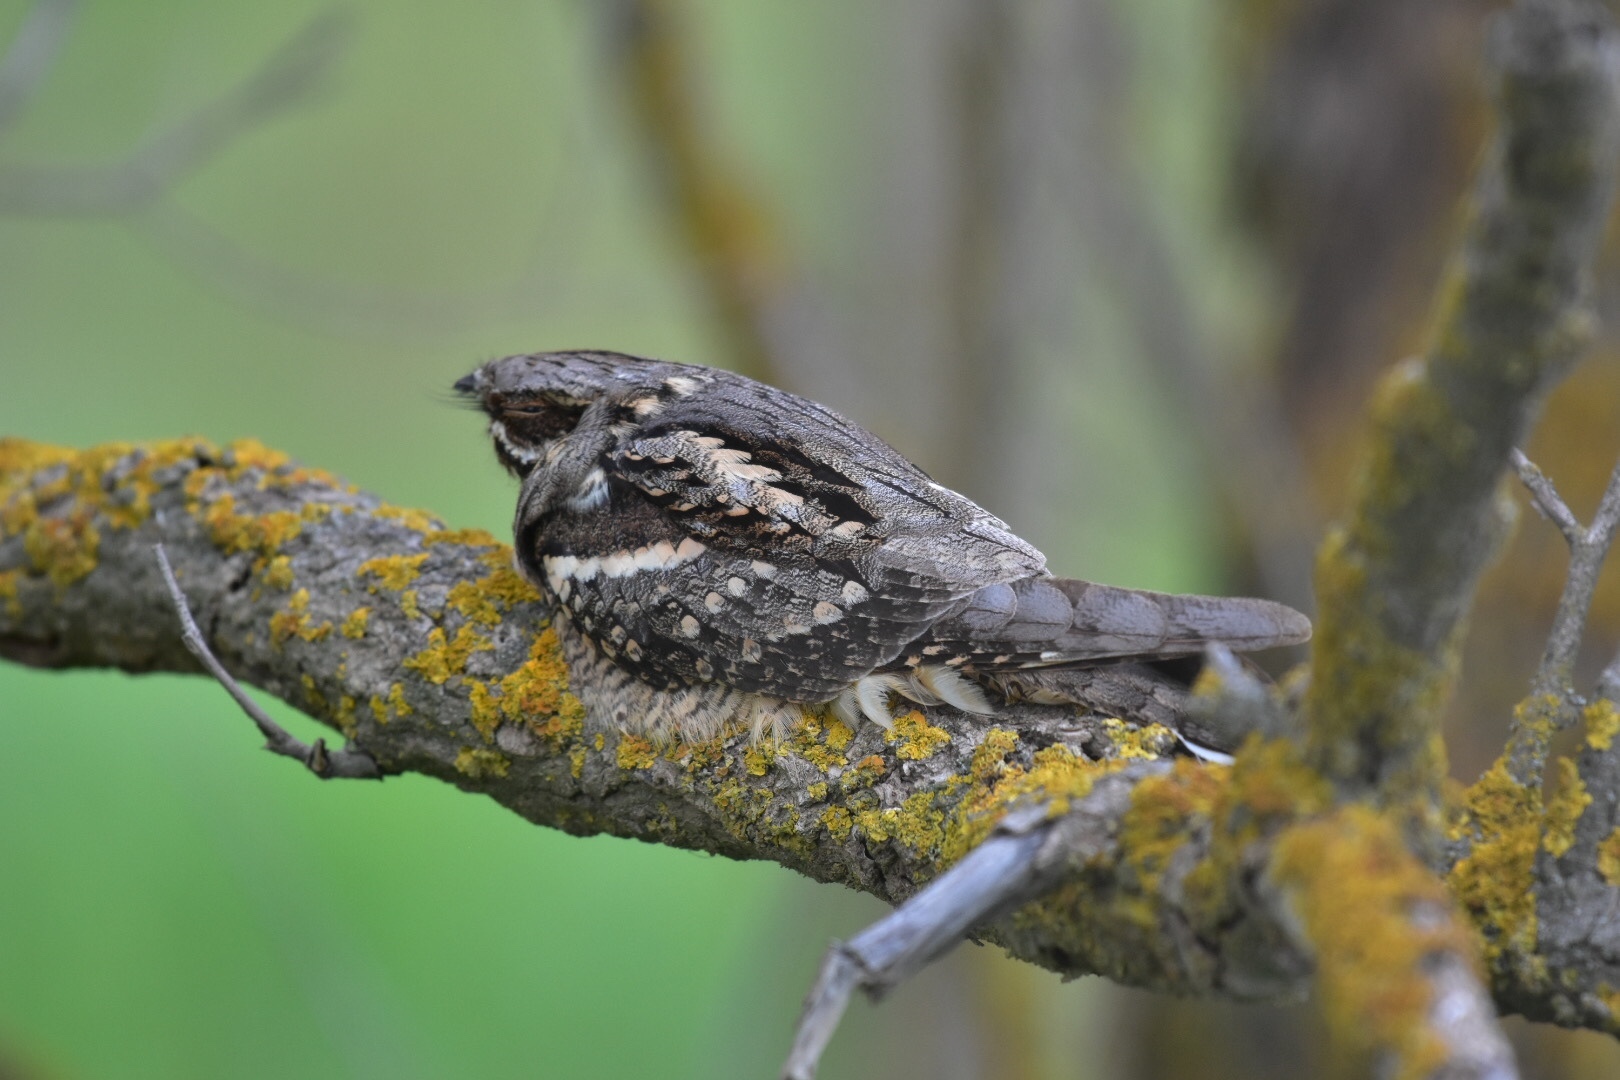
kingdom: Animalia
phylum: Chordata
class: Aves
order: Caprimulgiformes
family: Caprimulgidae
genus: Caprimulgus
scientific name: Caprimulgus europaeus
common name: European nightjar
